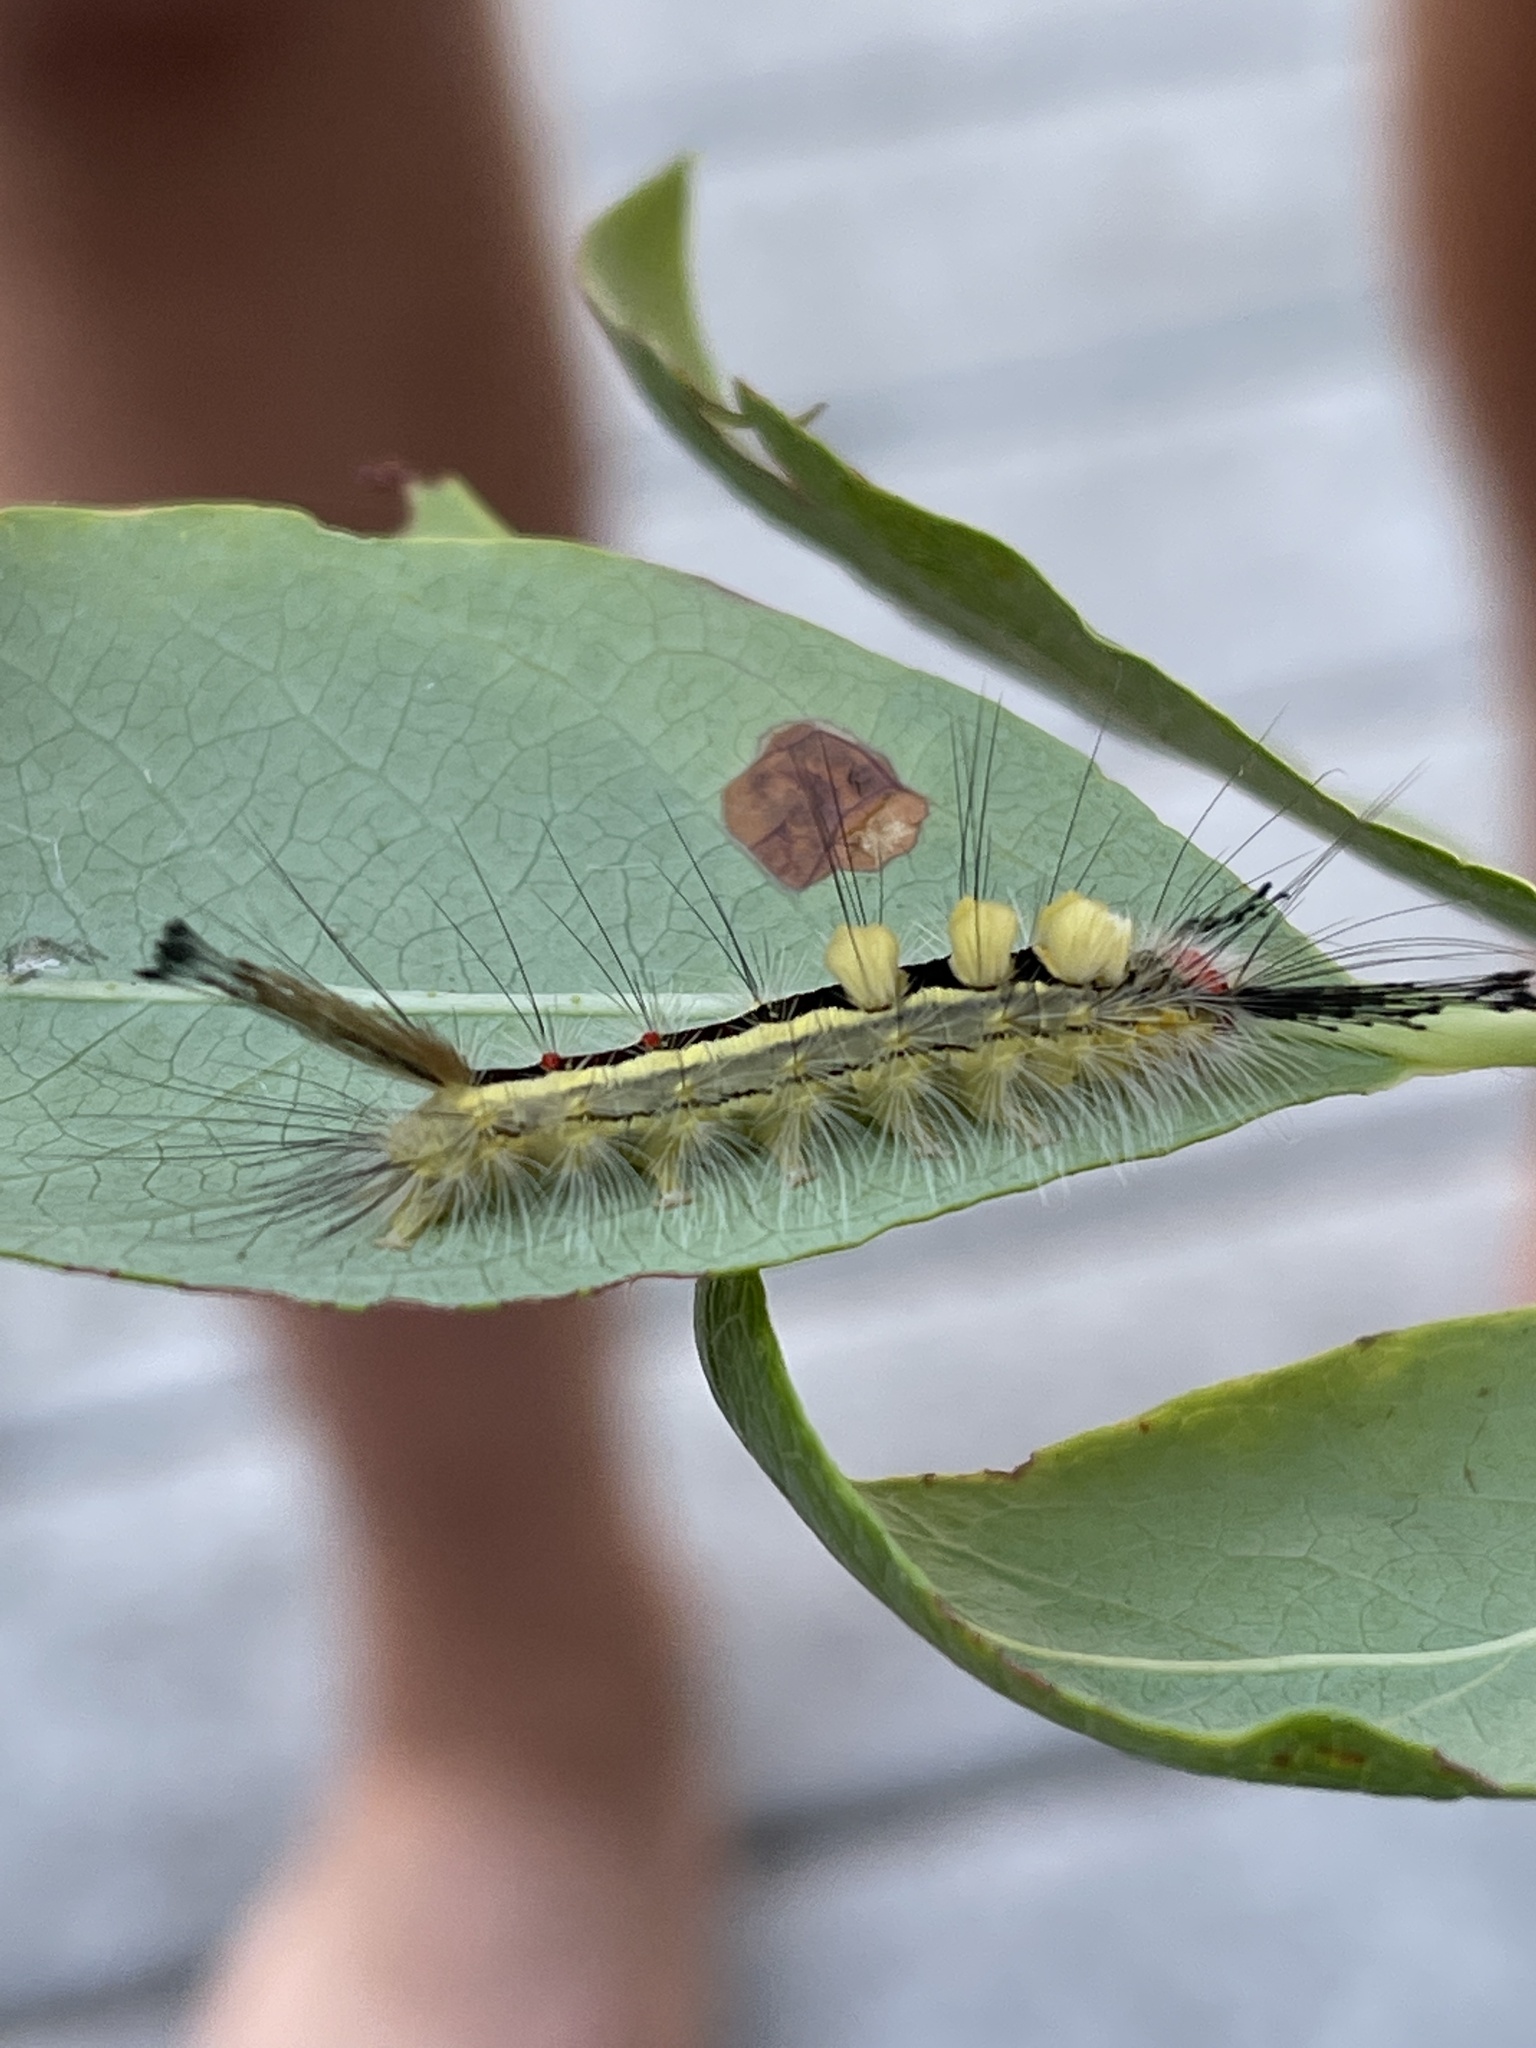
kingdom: Animalia
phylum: Arthropoda
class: Insecta
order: Lepidoptera
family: Erebidae
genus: Orgyia
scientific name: Orgyia leucostigma
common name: White-marked tussock moth
